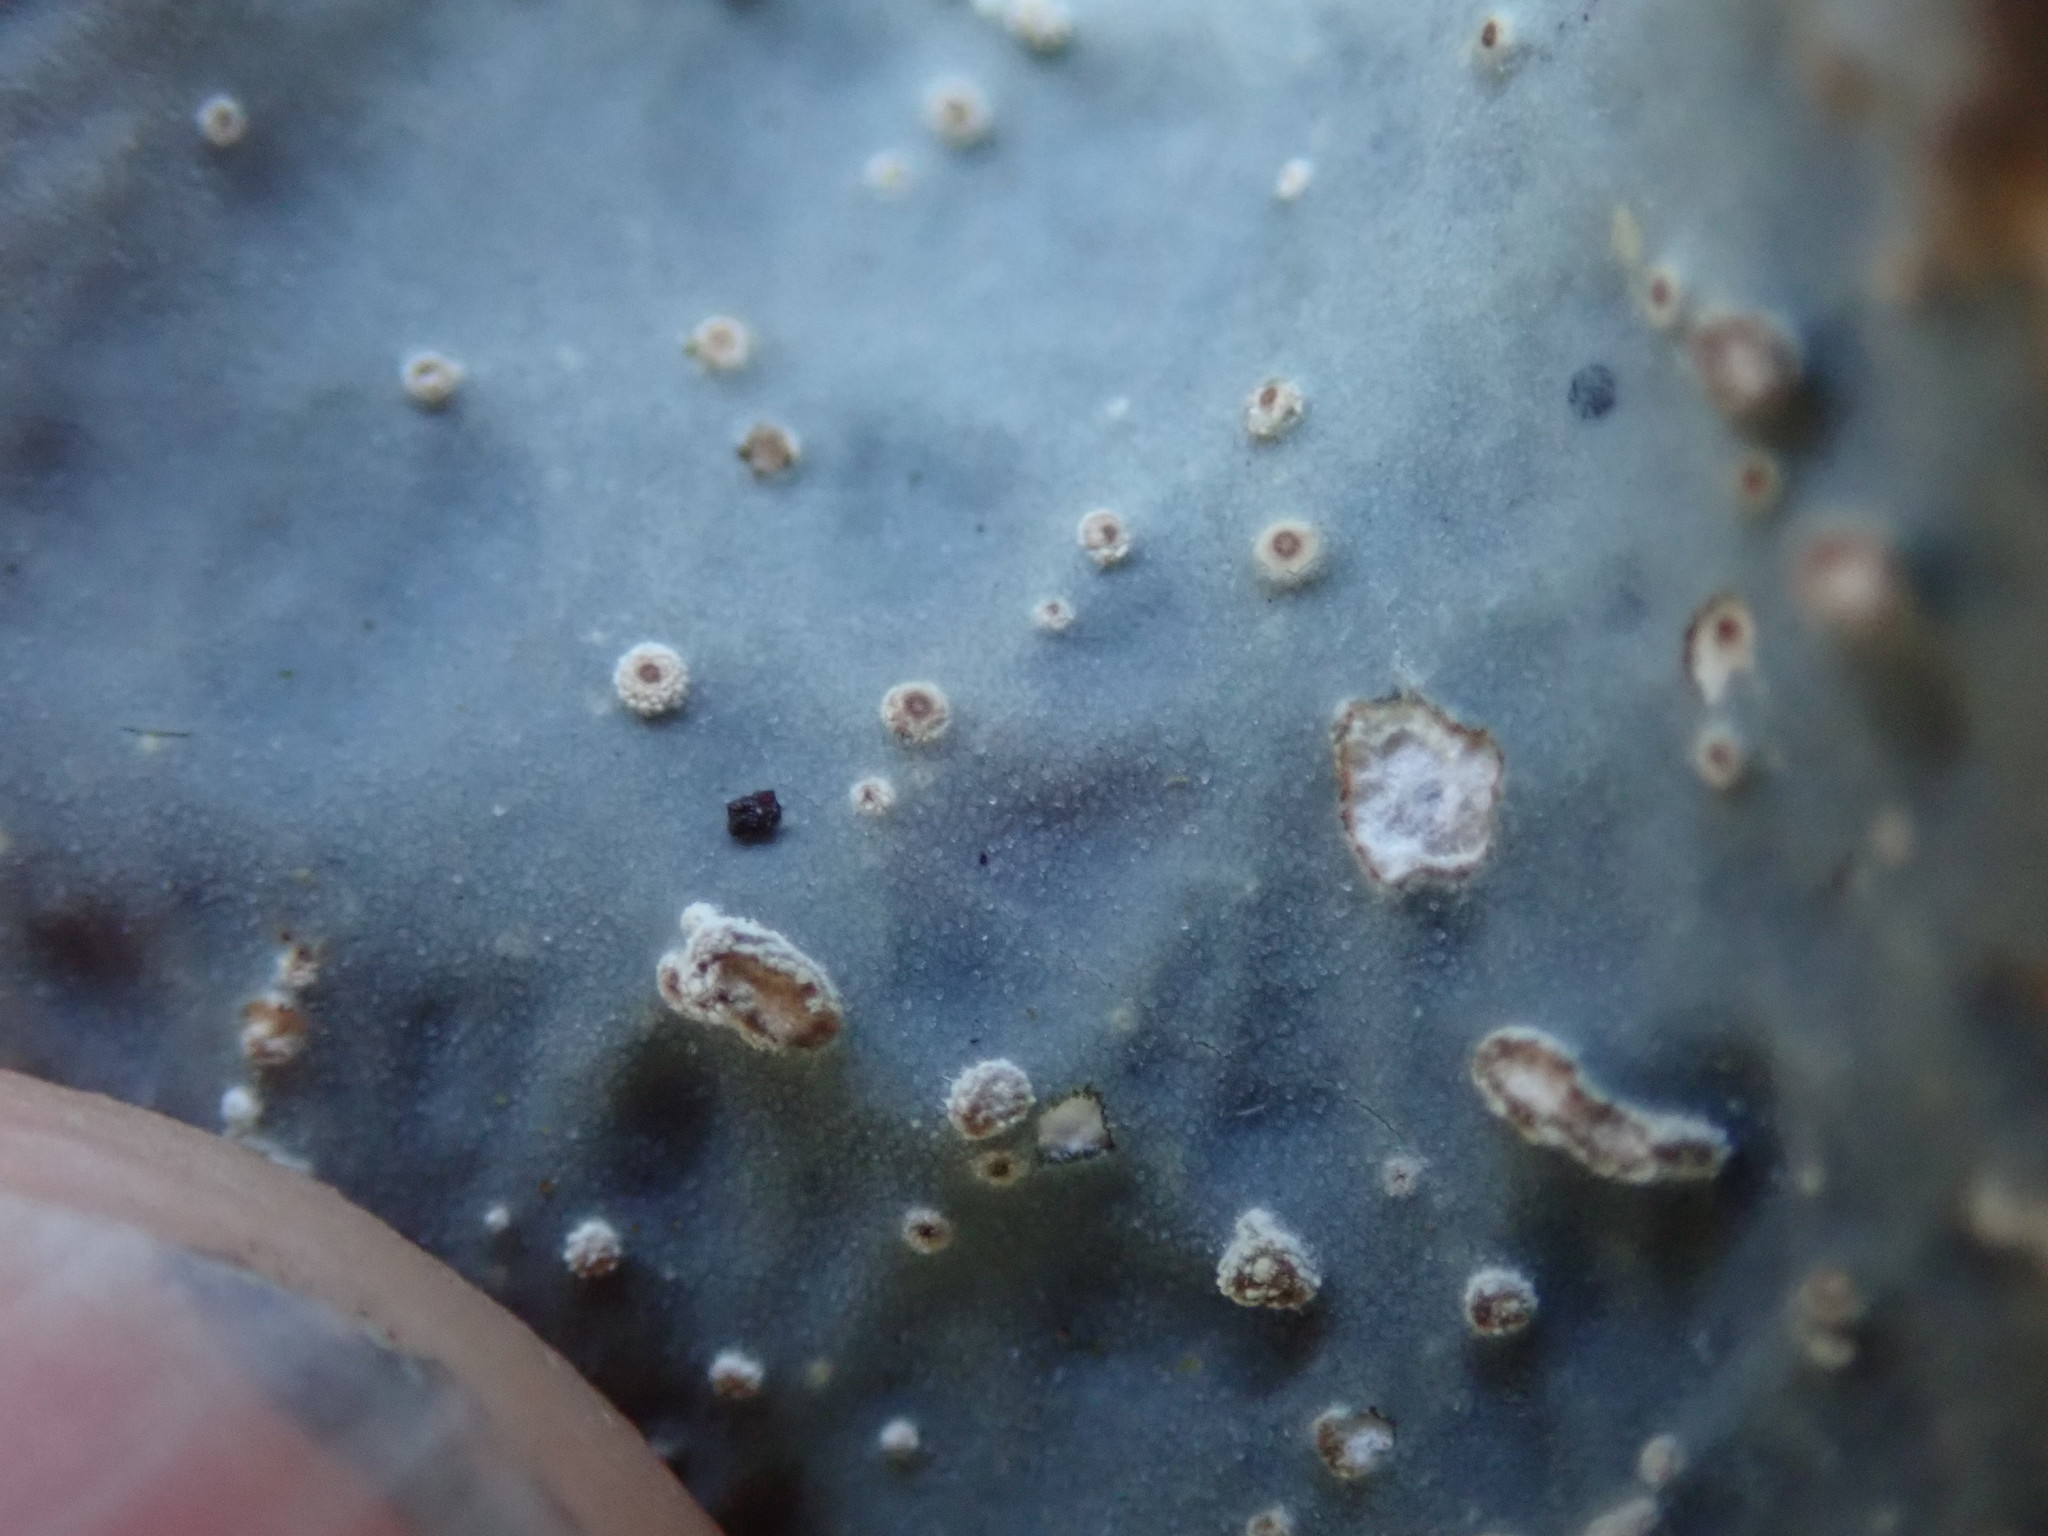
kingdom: Fungi
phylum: Ascomycota
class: Lecanoromycetes
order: Peltigerales
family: Lobariaceae
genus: Lobarina
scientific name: Lobarina scrobiculata
